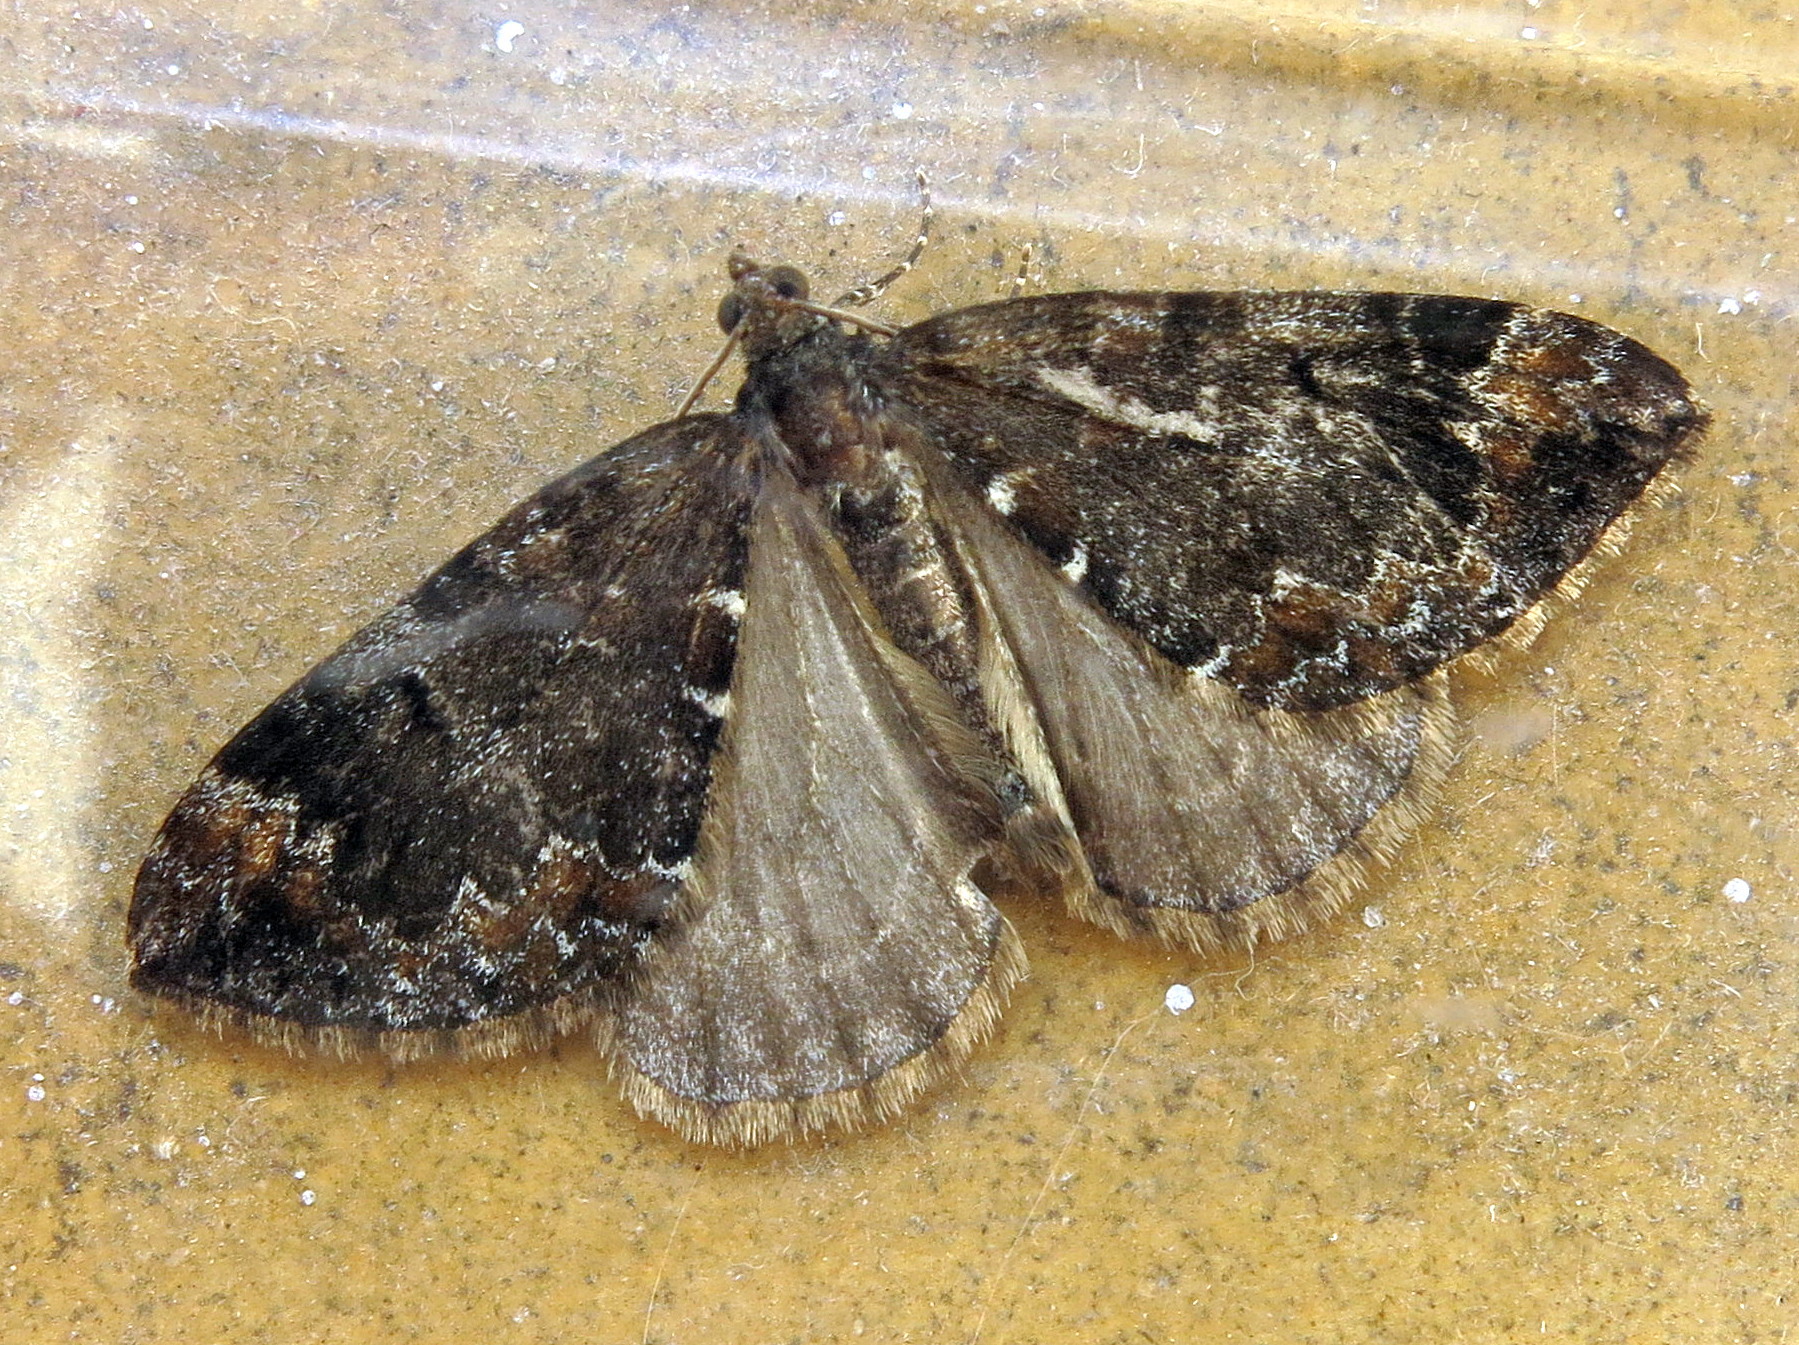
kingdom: Animalia
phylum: Arthropoda
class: Insecta
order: Lepidoptera
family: Geometridae
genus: Dysstroma
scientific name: Dysstroma truncata
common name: Common marbled carpet
